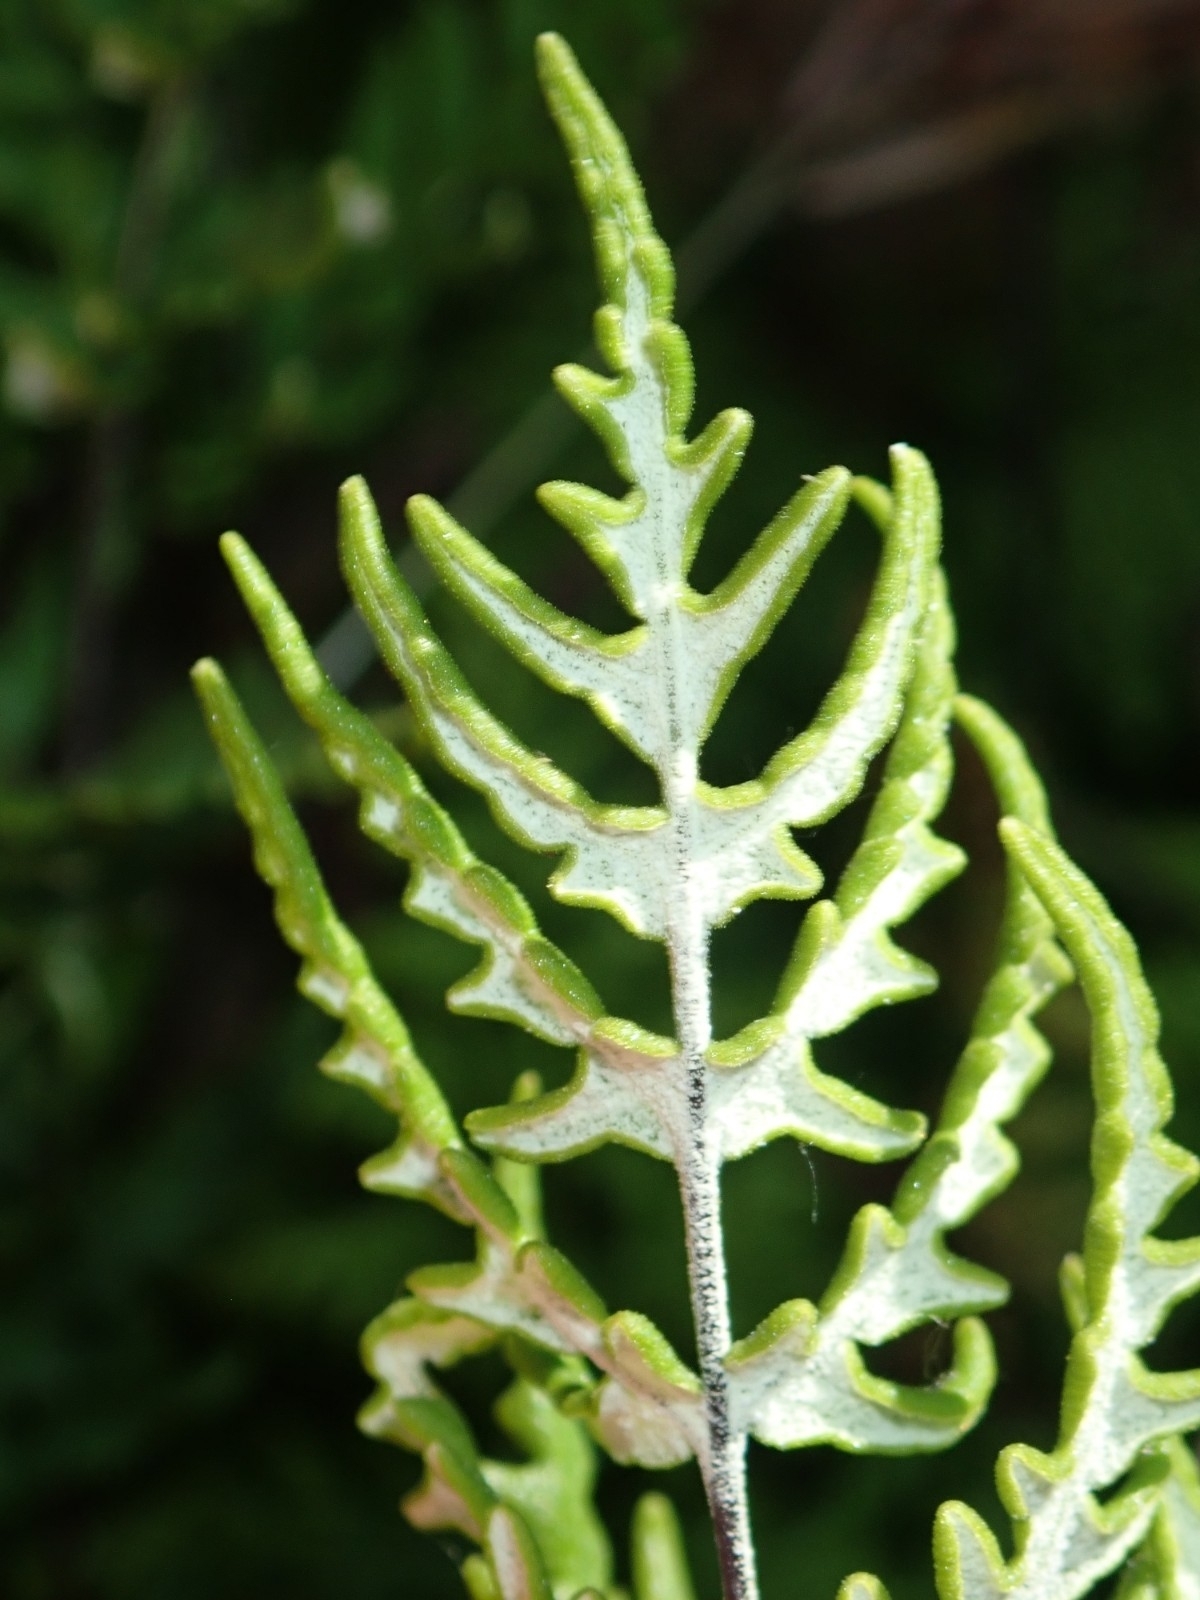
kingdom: Plantae
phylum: Tracheophyta
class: Polypodiopsida
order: Polypodiales
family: Pteridaceae
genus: Pentagramma
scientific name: Pentagramma viscosa
